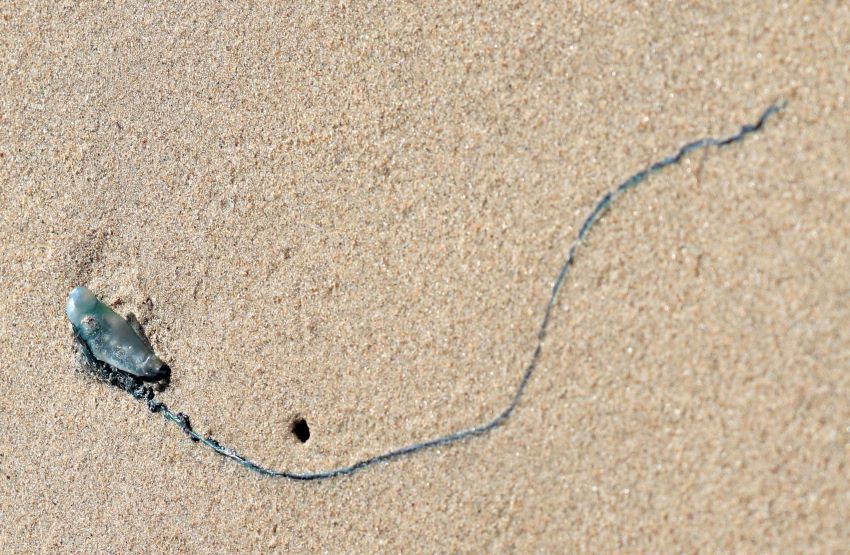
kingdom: Animalia
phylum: Cnidaria
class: Hydrozoa
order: Siphonophorae
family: Physaliidae
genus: Physalia
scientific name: Physalia physalis
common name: Portuguese man-of-war
